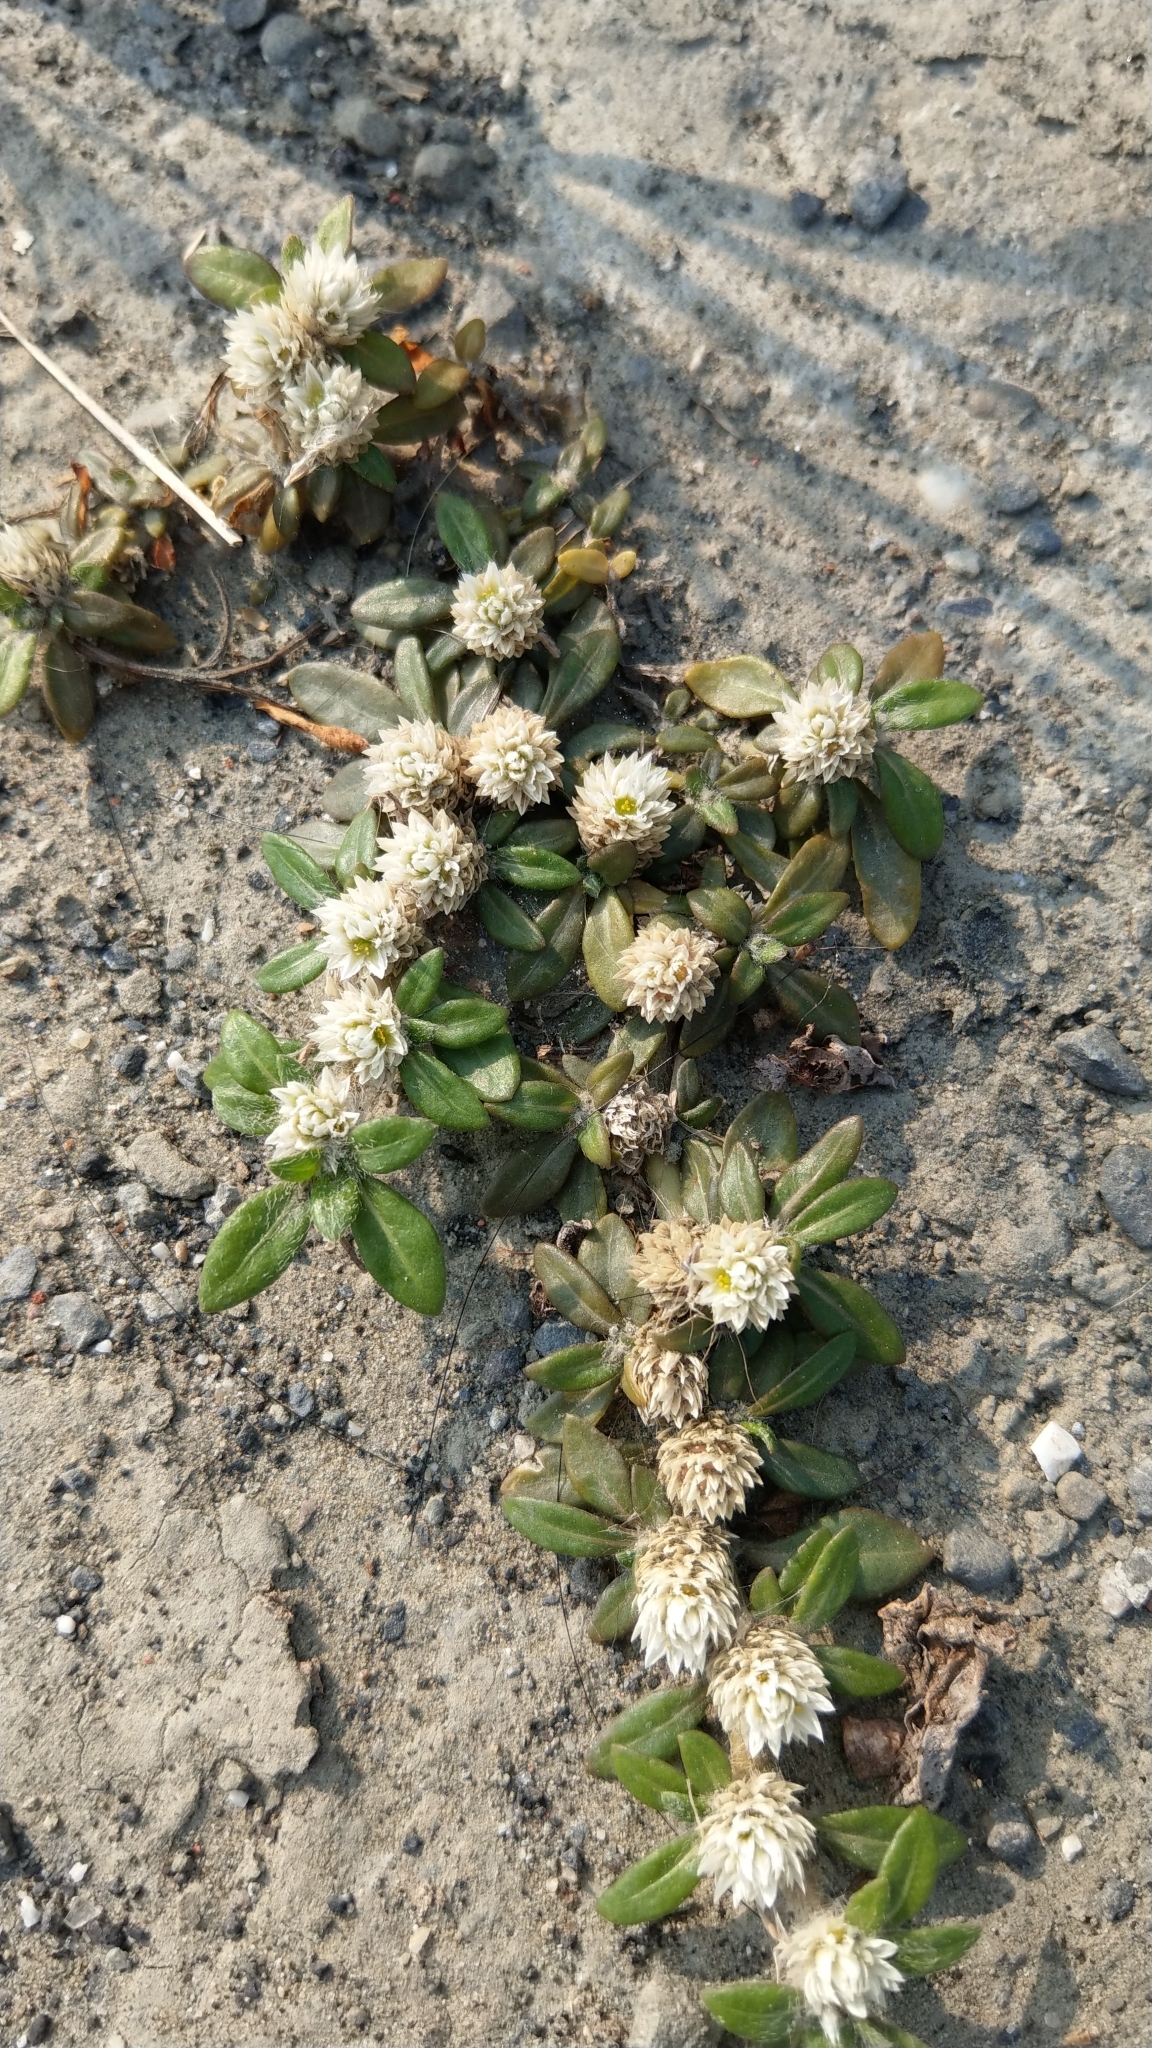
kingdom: Plantae
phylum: Tracheophyta
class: Magnoliopsida
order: Caryophyllales
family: Amaranthaceae
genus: Alternanthera
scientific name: Alternanthera paronychioides
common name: Smooth joyweed
